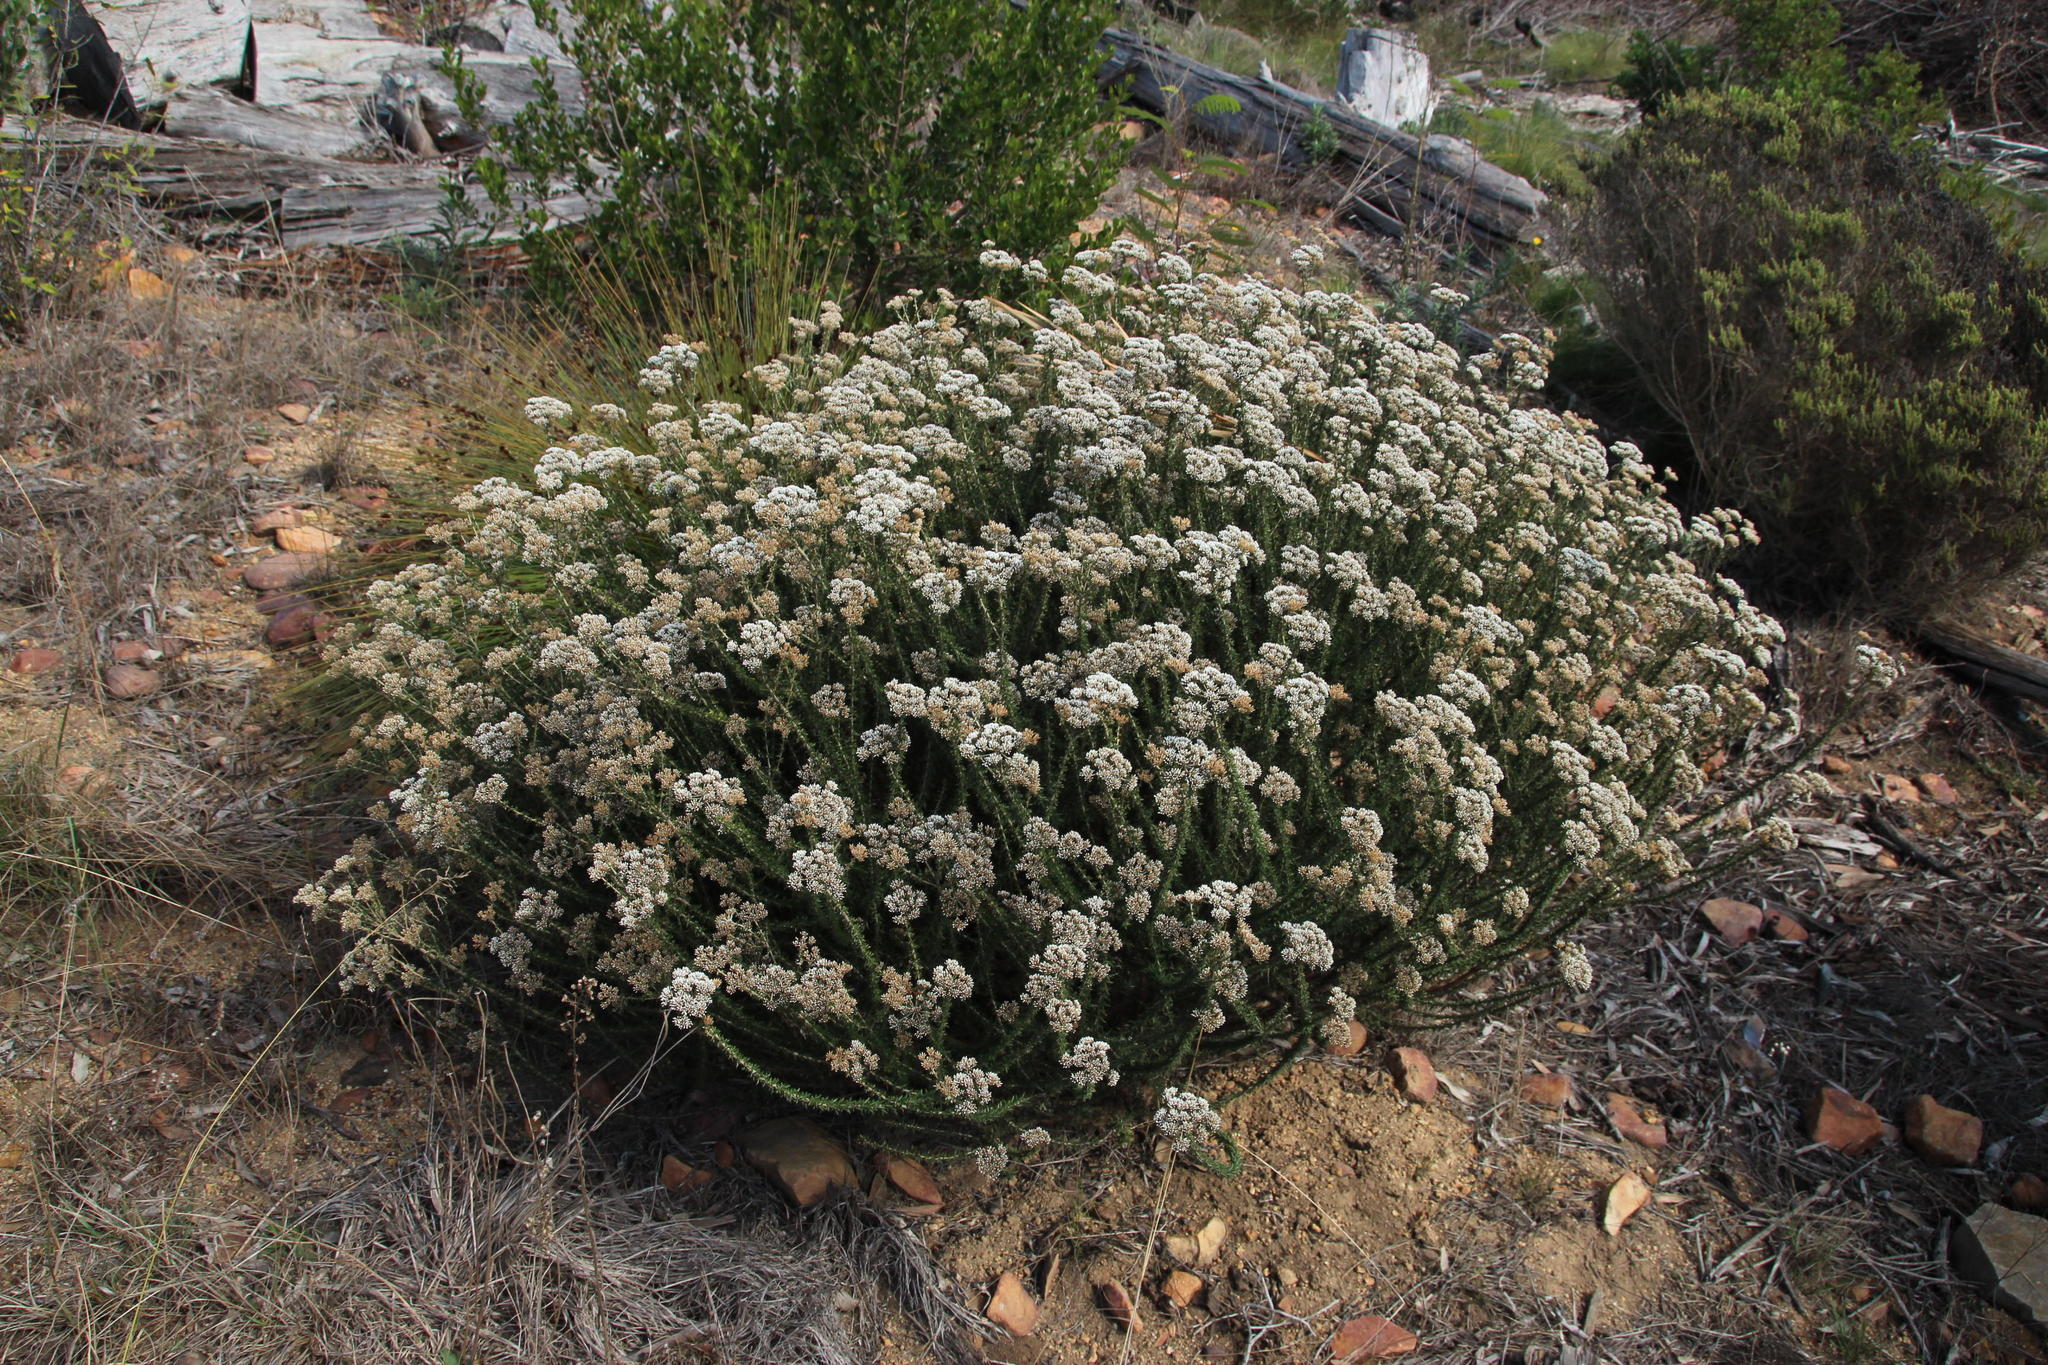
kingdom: Plantae
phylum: Tracheophyta
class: Magnoliopsida
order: Asterales
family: Asteraceae
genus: Metalasia
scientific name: Metalasia densa
